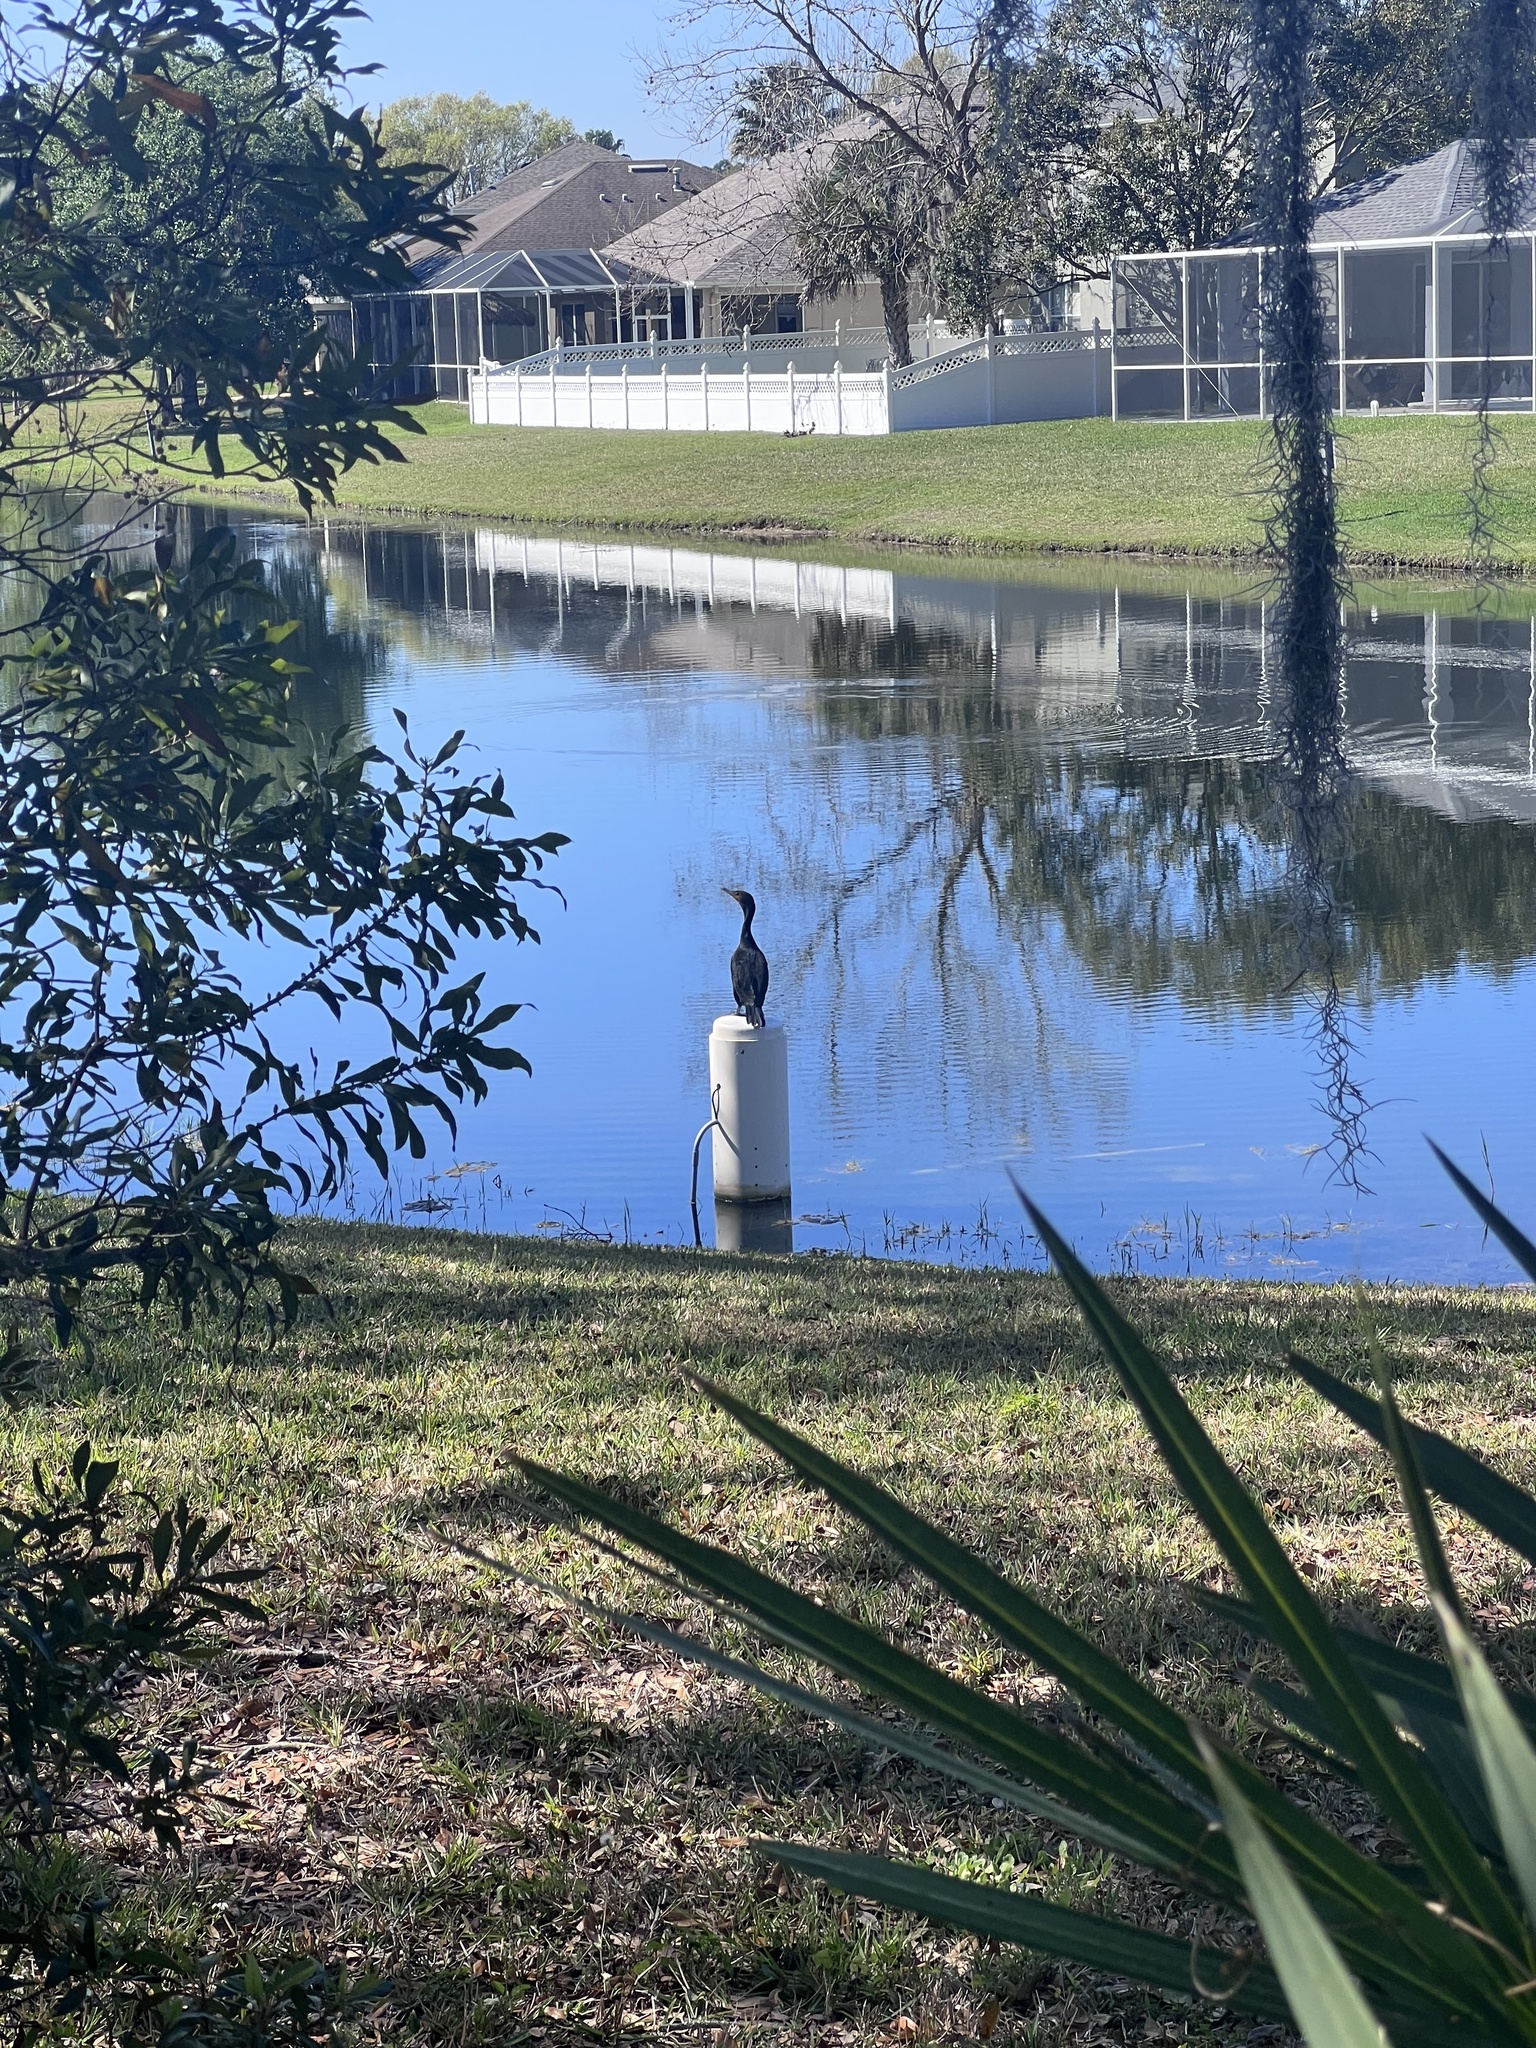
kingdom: Animalia
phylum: Chordata
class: Aves
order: Suliformes
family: Phalacrocoracidae
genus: Phalacrocorax
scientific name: Phalacrocorax auritus
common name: Double-crested cormorant
